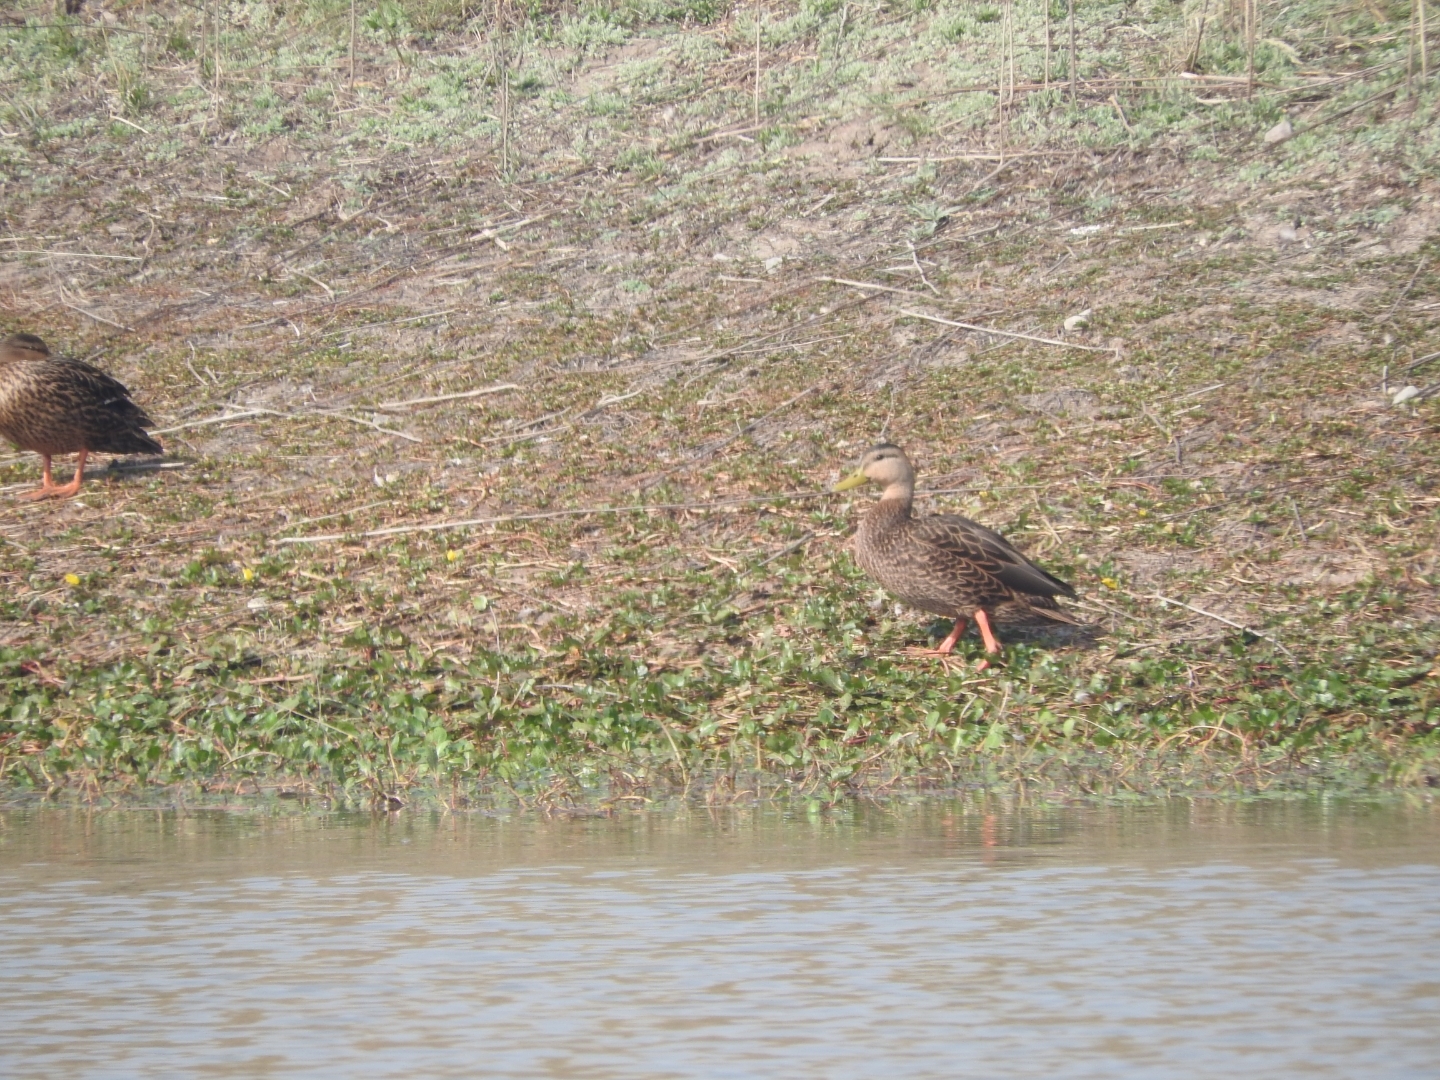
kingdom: Animalia
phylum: Chordata
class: Aves
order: Anseriformes
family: Anatidae
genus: Anas
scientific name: Anas diazi
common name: Mexican duck
